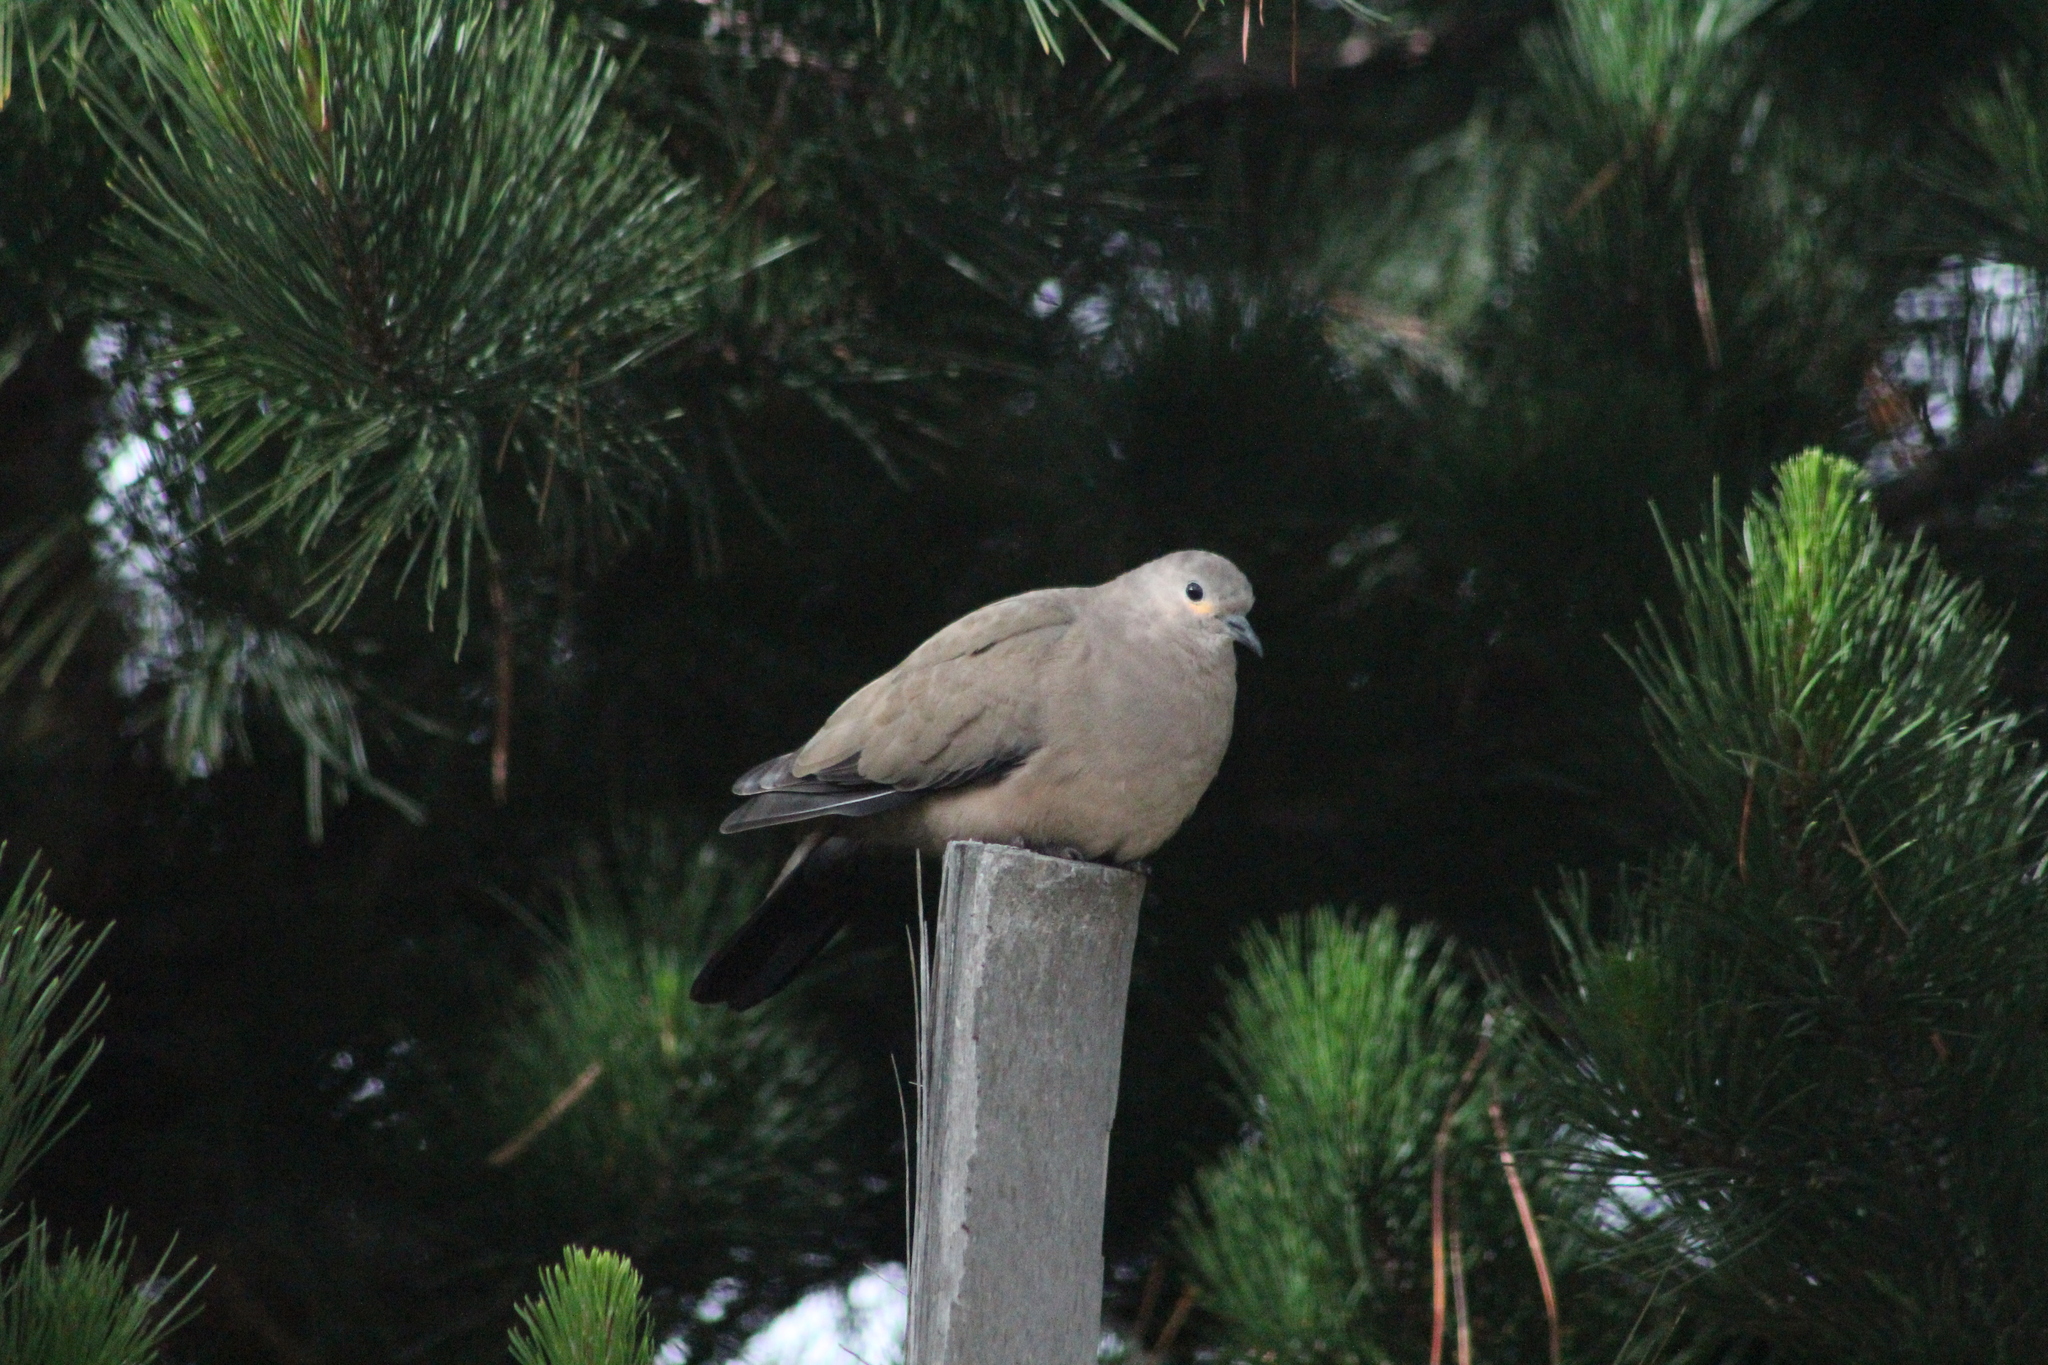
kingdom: Animalia
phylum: Chordata
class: Aves
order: Columbiformes
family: Columbidae
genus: Metriopelia
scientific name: Metriopelia melanoptera
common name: Black-winged ground dove
